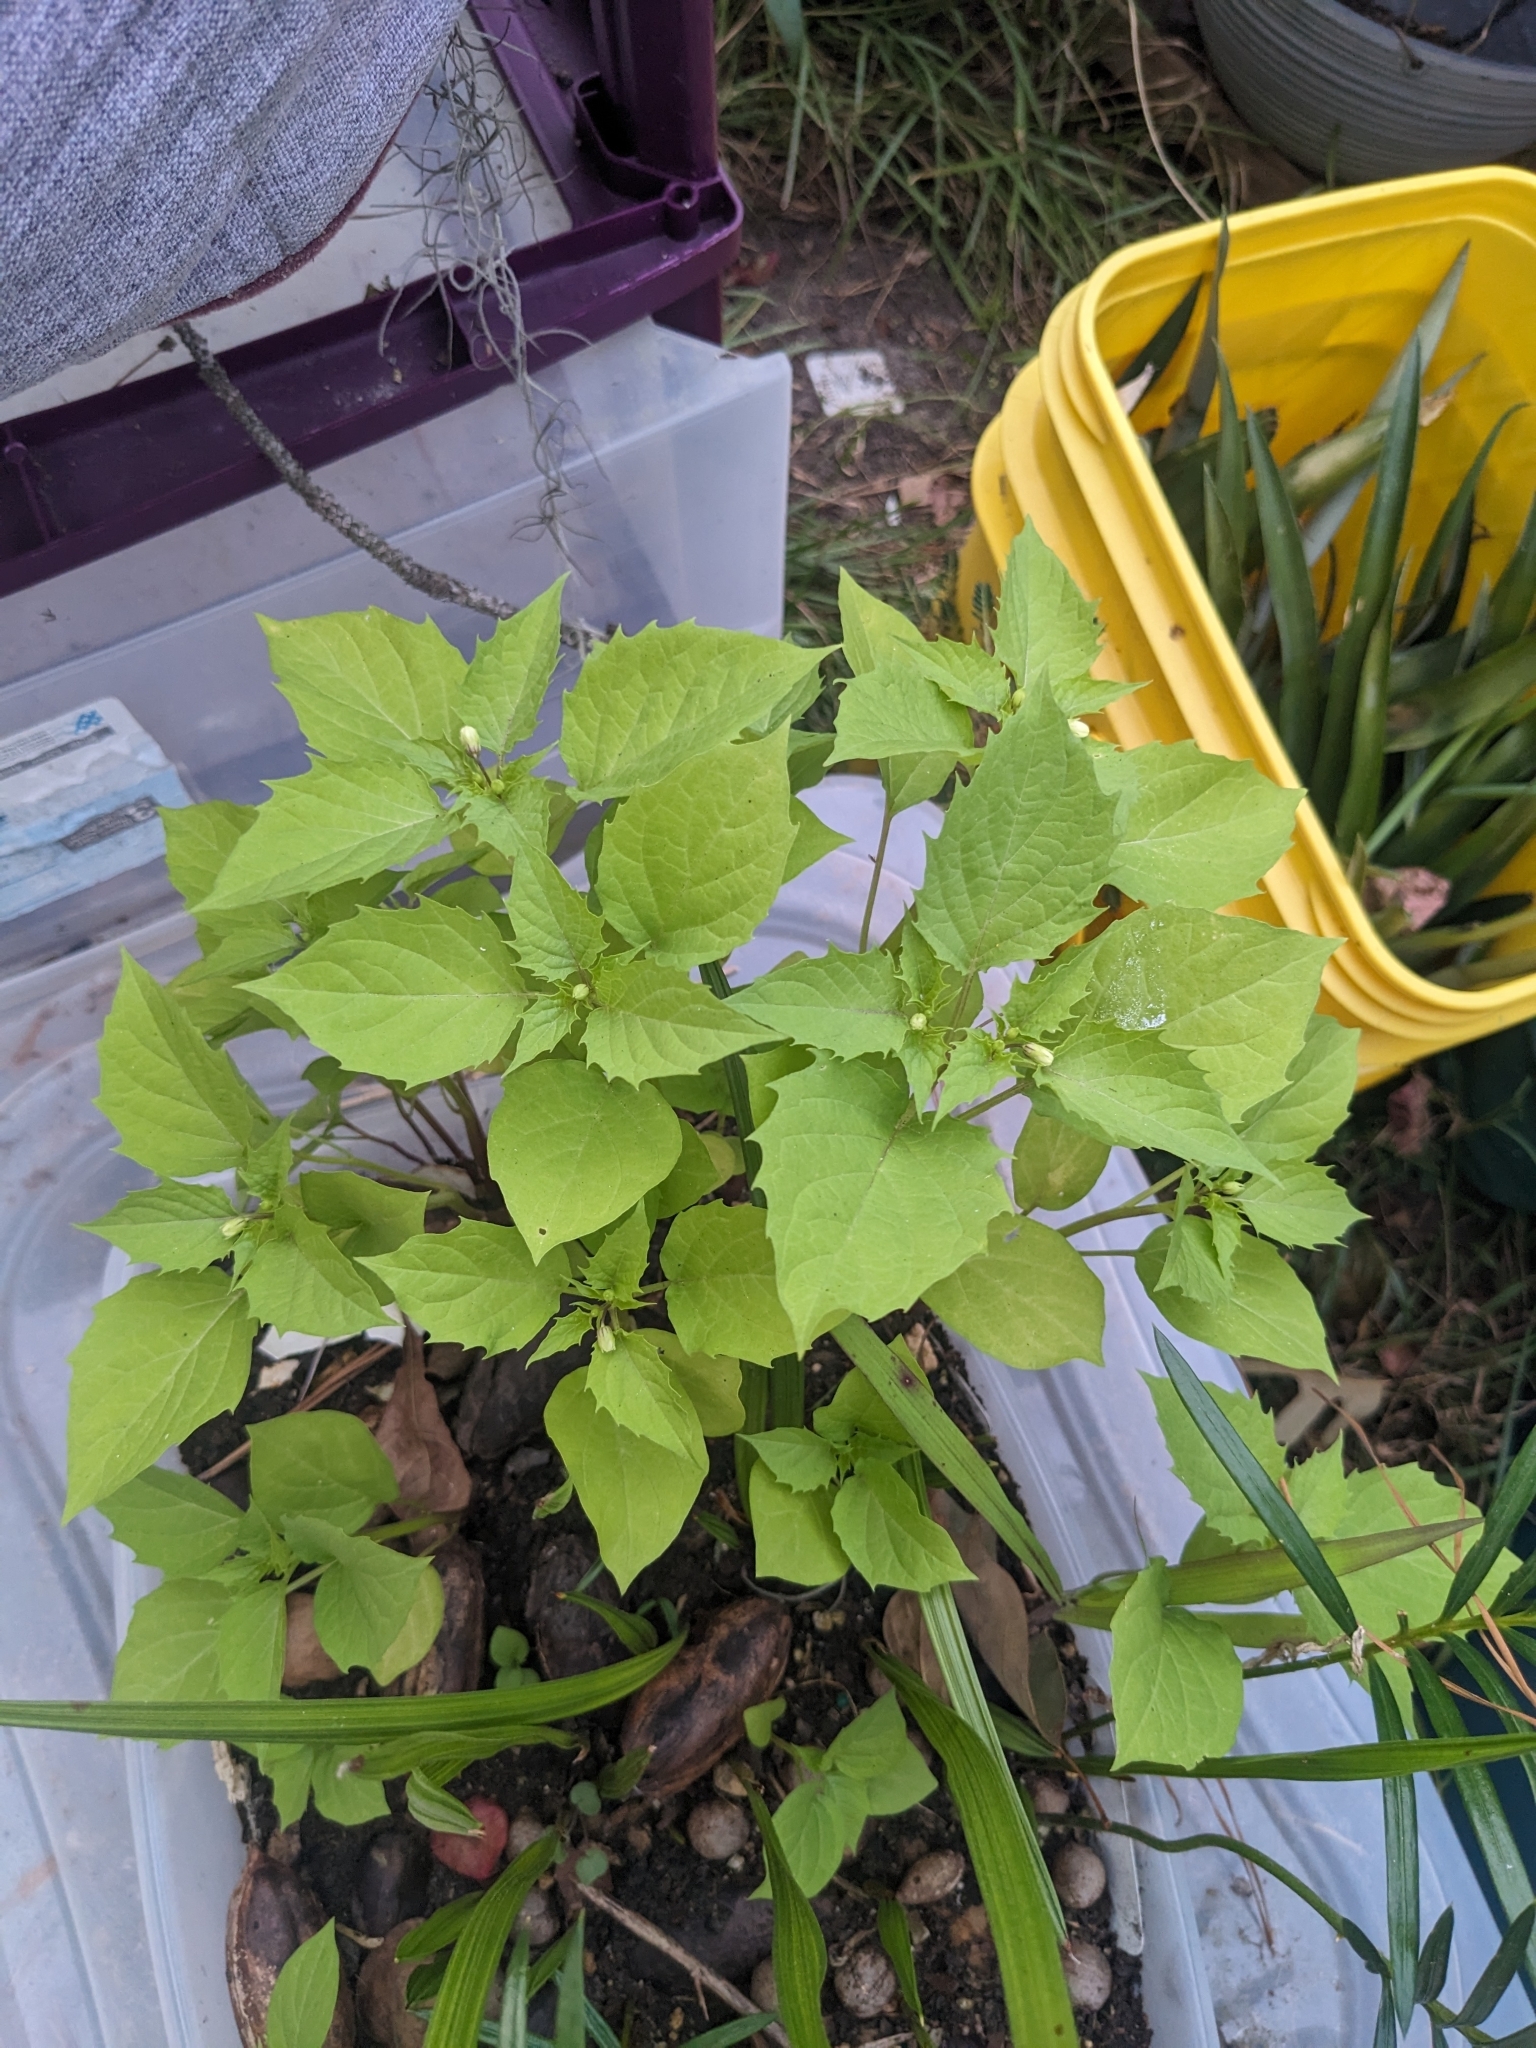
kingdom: Plantae
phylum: Tracheophyta
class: Magnoliopsida
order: Solanales
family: Solanaceae
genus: Physalis
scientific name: Physalis angulata
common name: Angular winter-cherry
